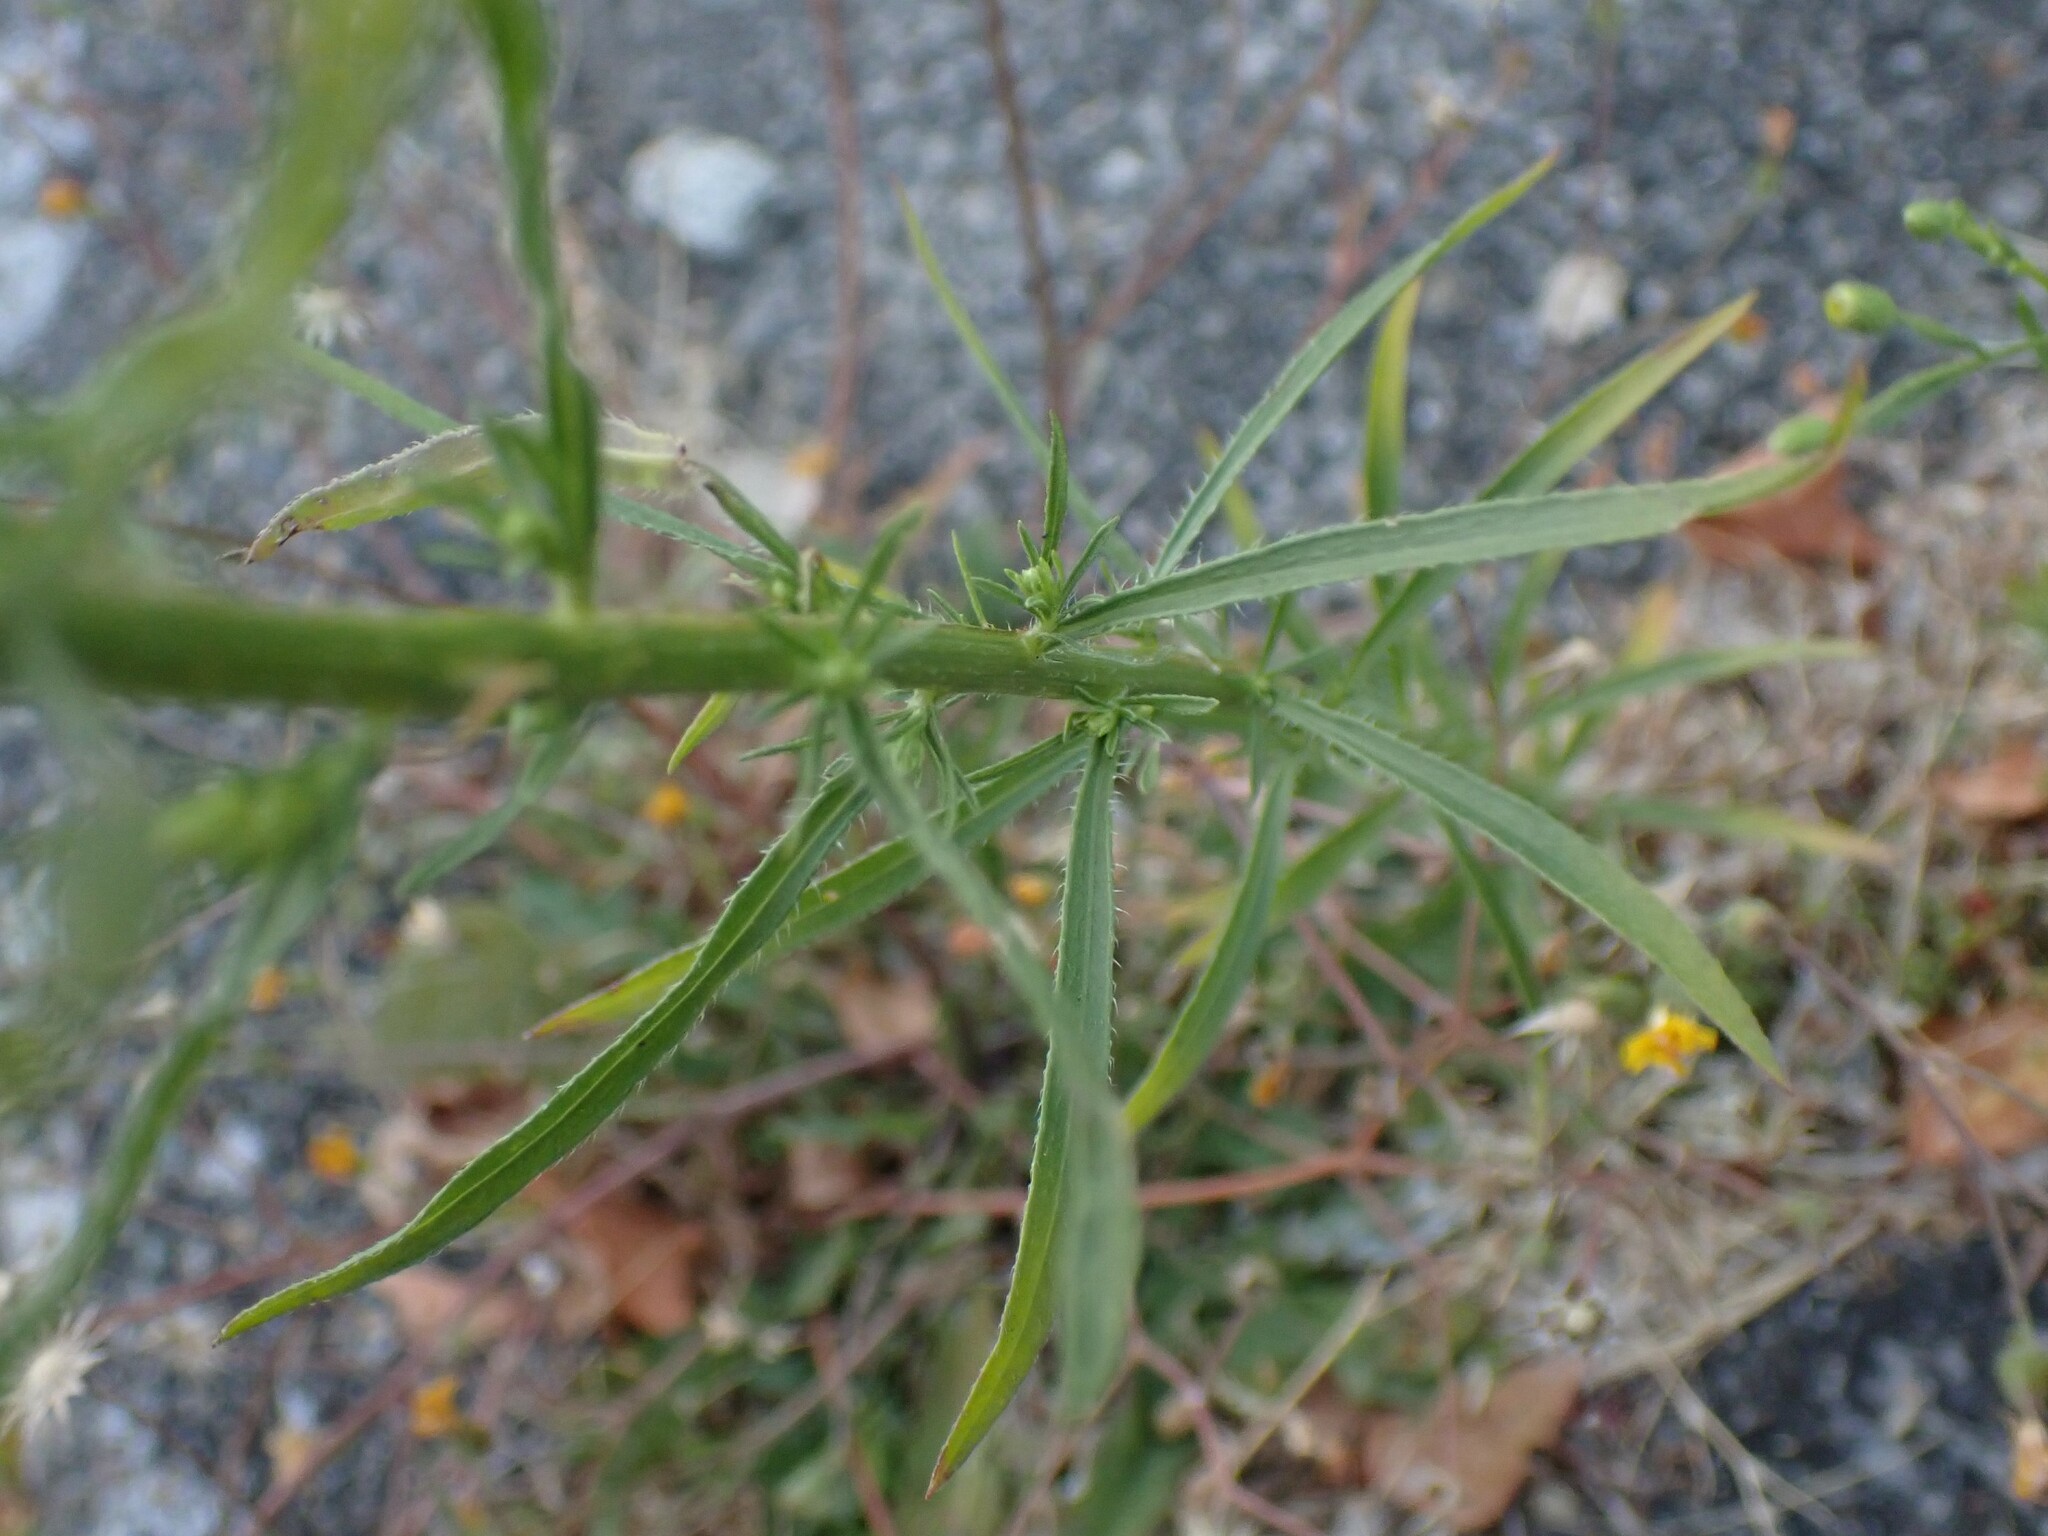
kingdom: Plantae
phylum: Tracheophyta
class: Magnoliopsida
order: Asterales
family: Asteraceae
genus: Erigeron
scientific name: Erigeron canadensis
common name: Canadian fleabane
